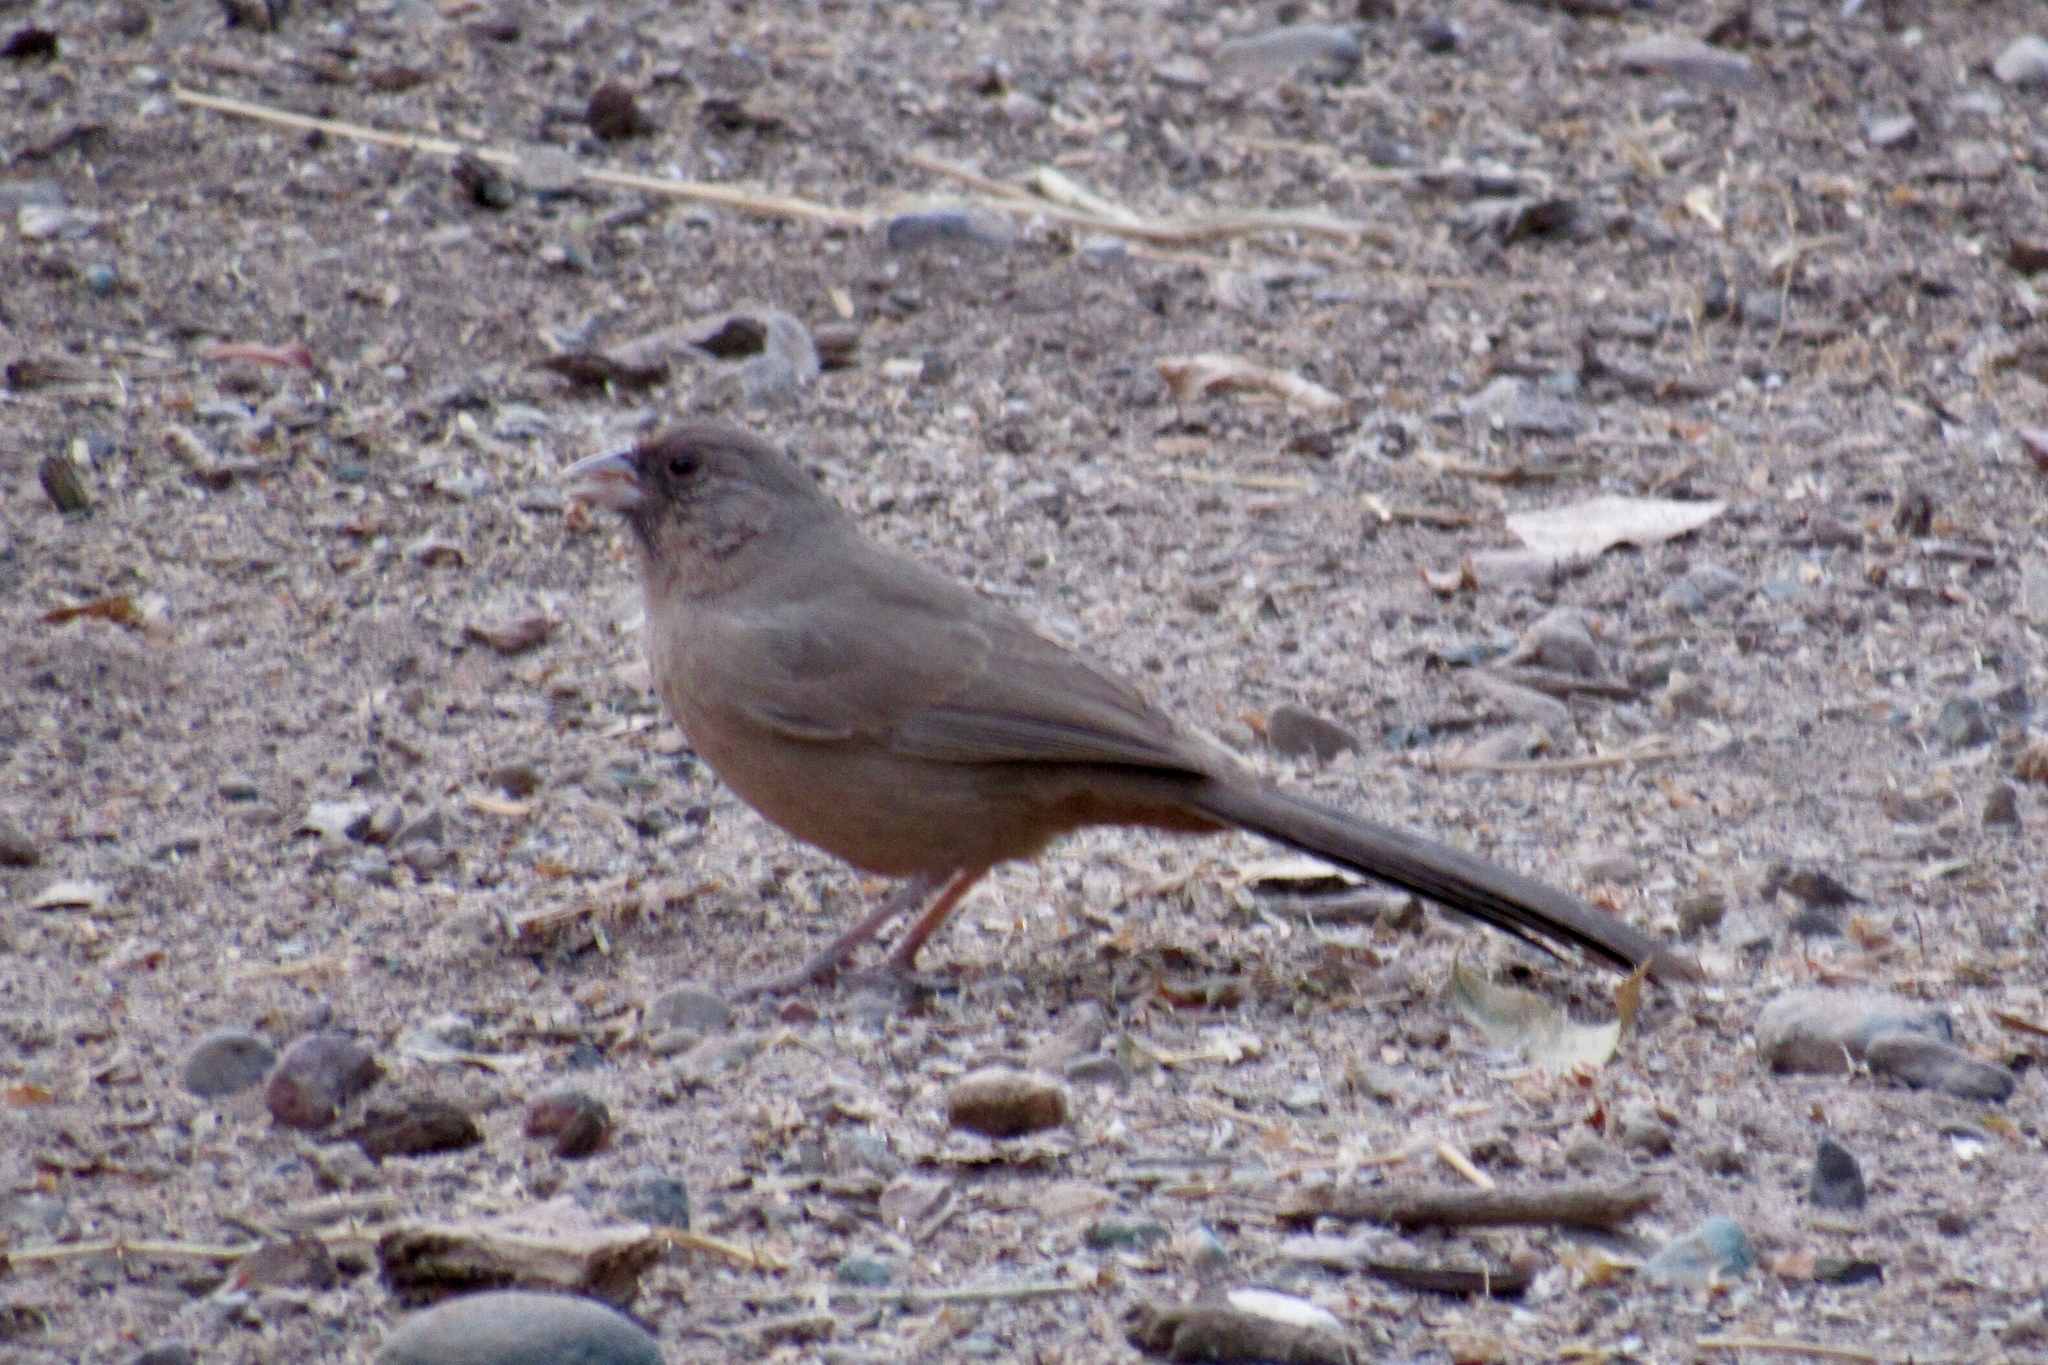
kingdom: Animalia
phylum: Chordata
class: Aves
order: Passeriformes
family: Passerellidae
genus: Melozone
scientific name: Melozone aberti
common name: Abert's towhee
